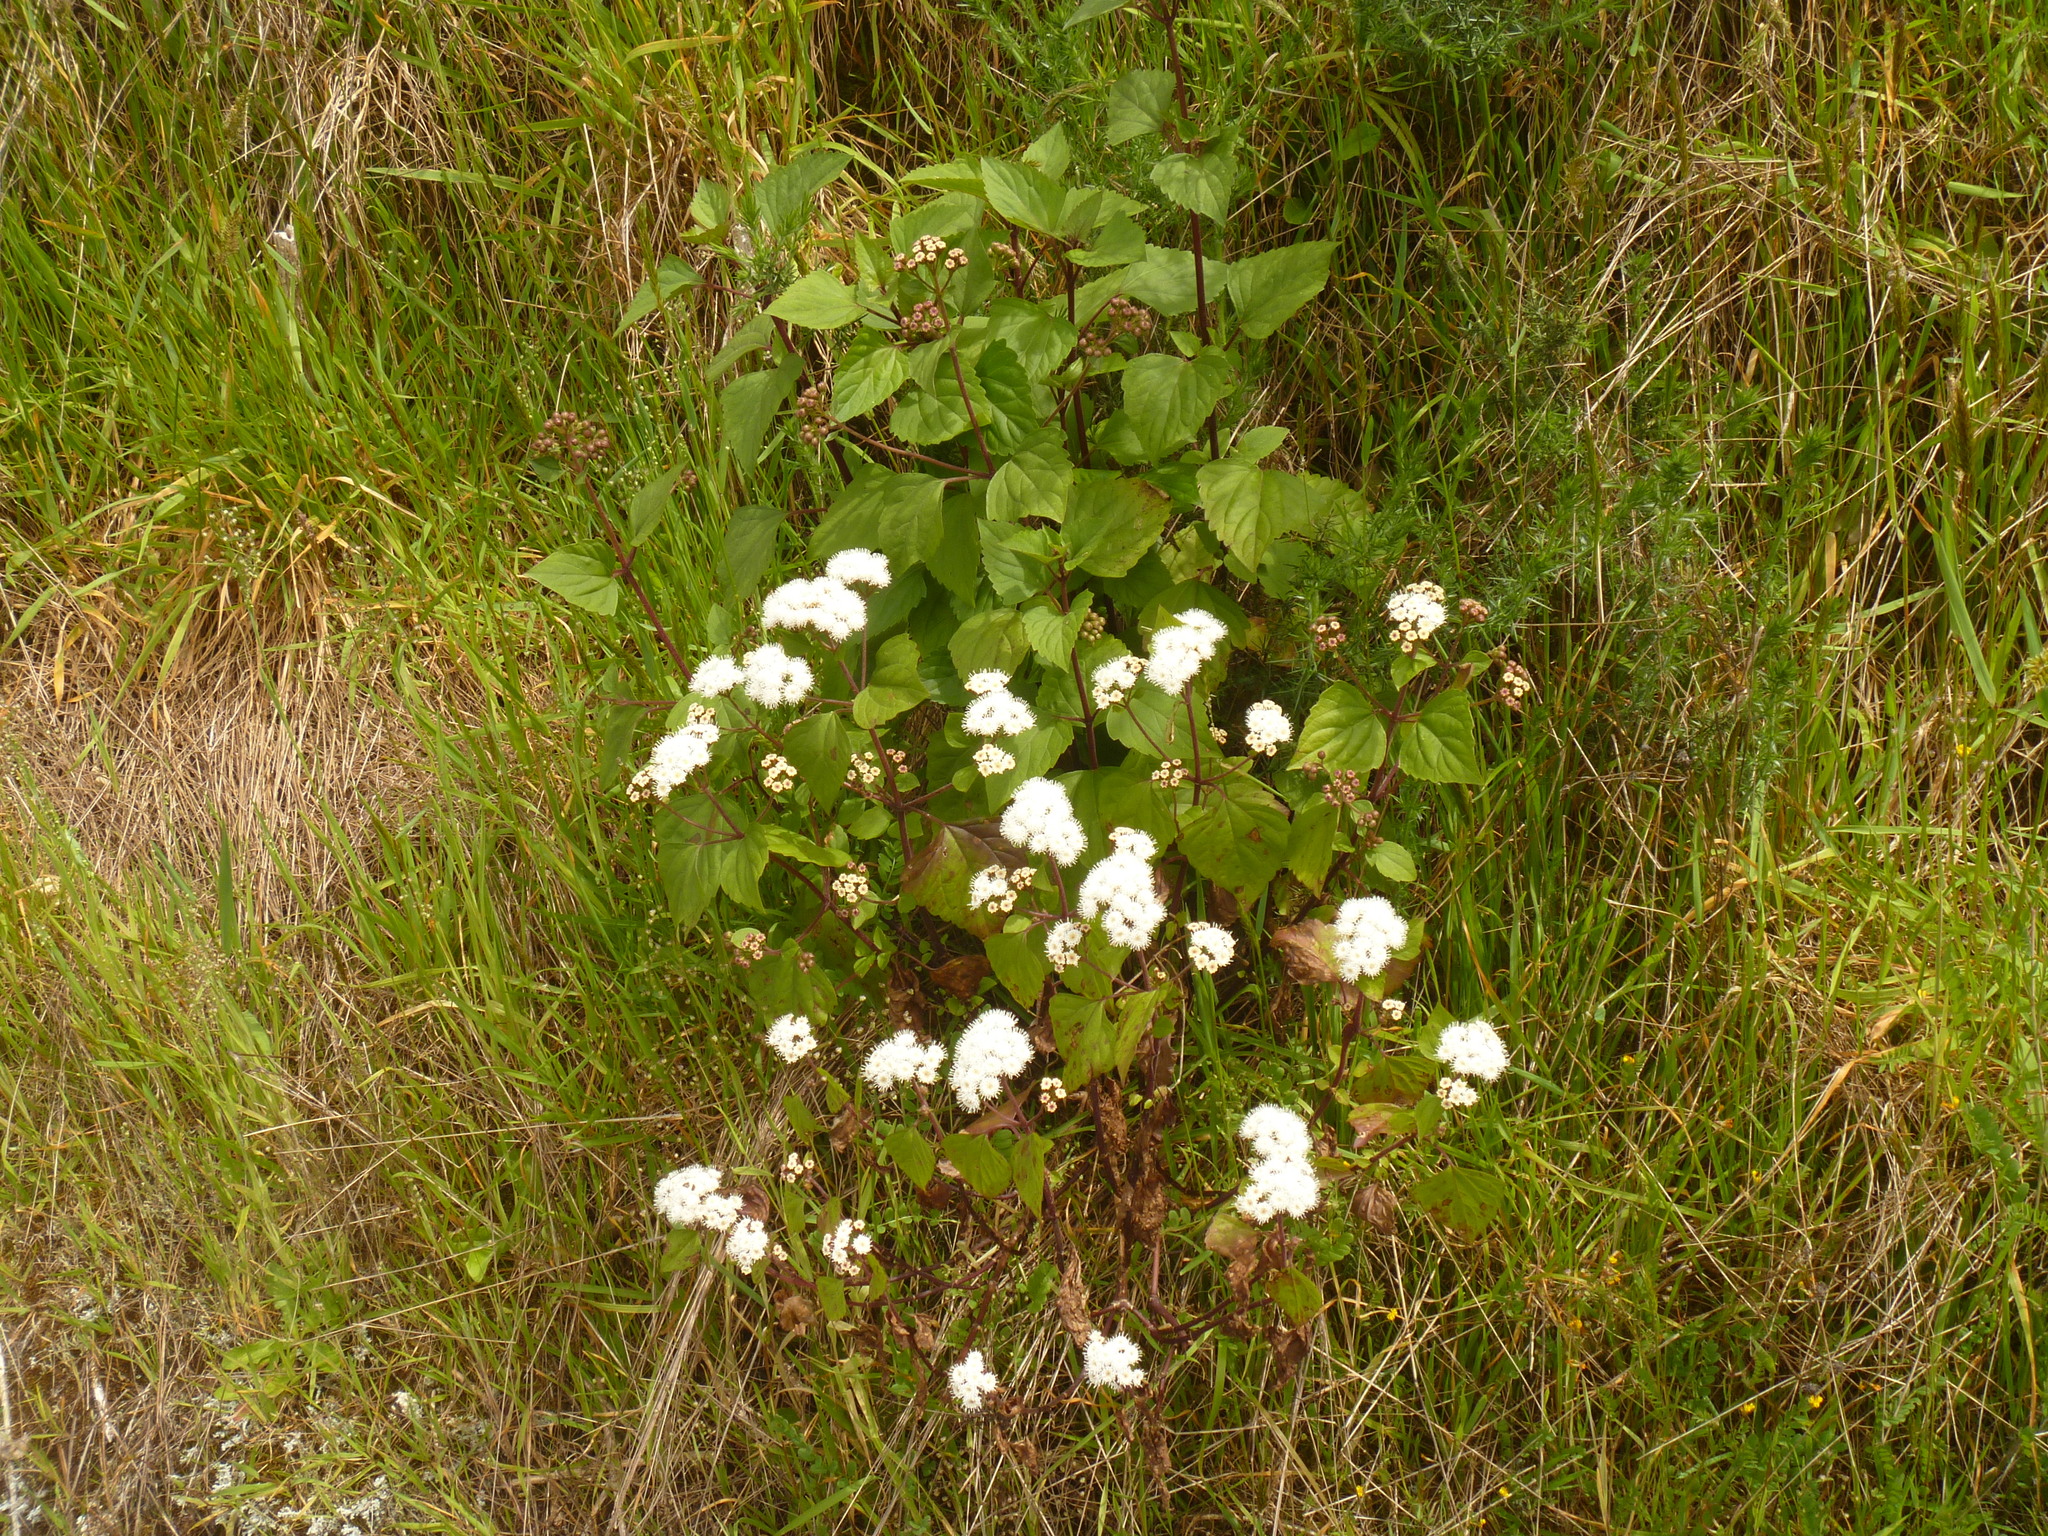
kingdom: Plantae
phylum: Tracheophyta
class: Magnoliopsida
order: Asterales
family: Asteraceae
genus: Ageratina
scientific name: Ageratina adenophora
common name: Sticky snakeroot
